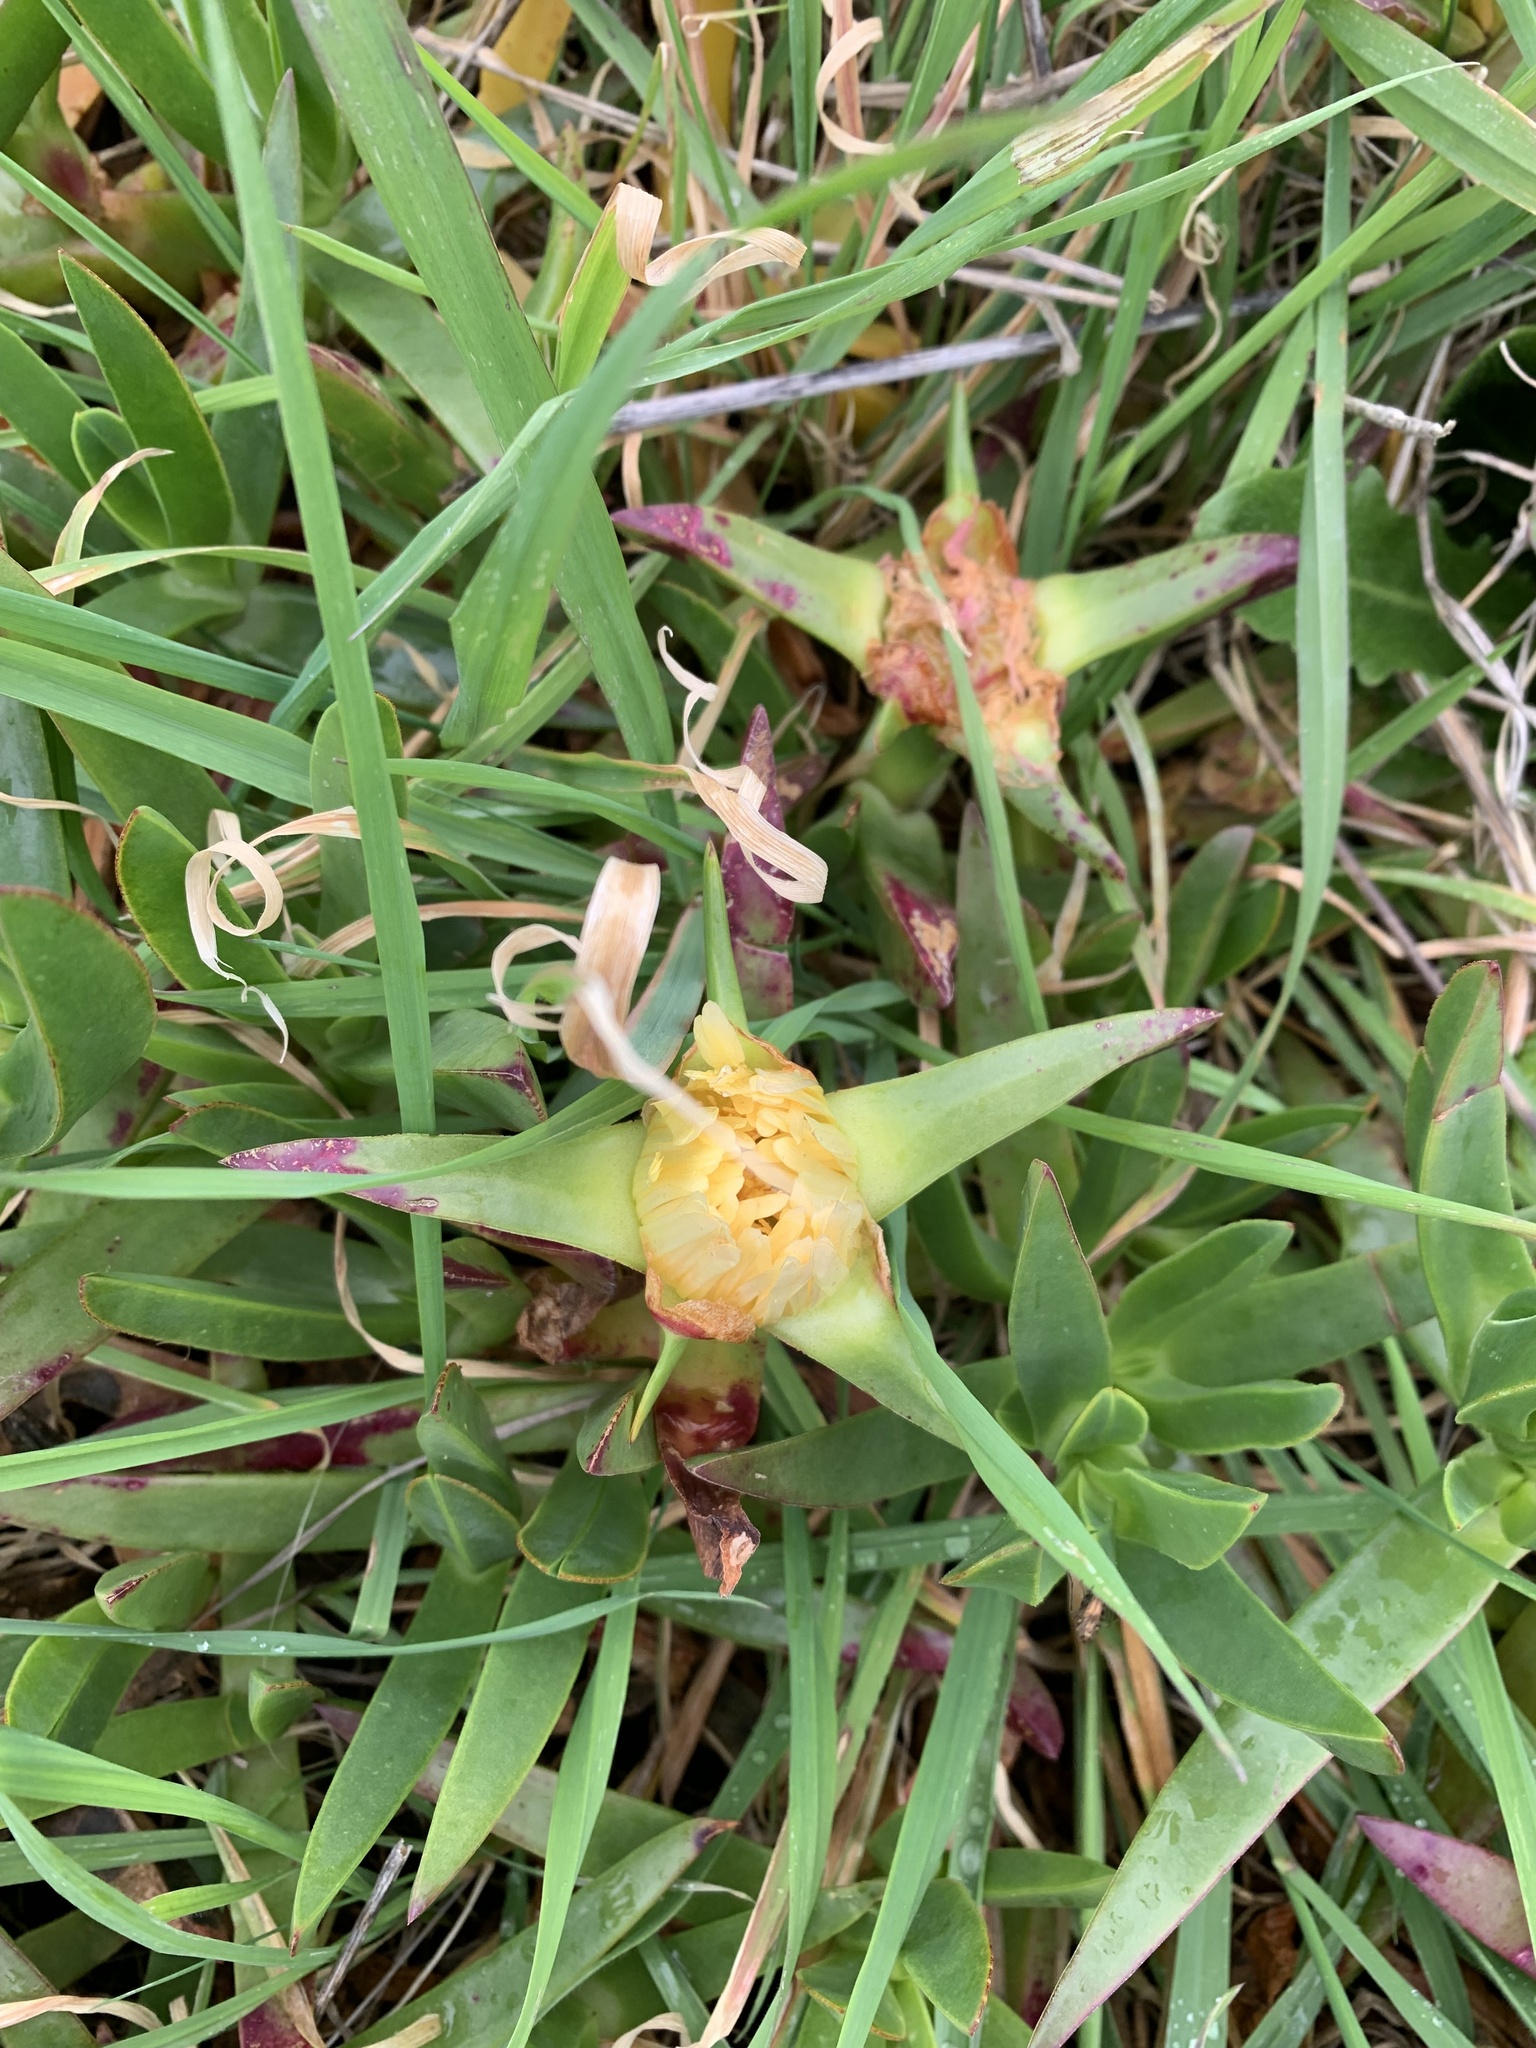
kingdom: Plantae
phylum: Tracheophyta
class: Magnoliopsida
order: Caryophyllales
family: Aizoaceae
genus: Carpobrotus
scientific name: Carpobrotus edulis
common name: Hottentot-fig
